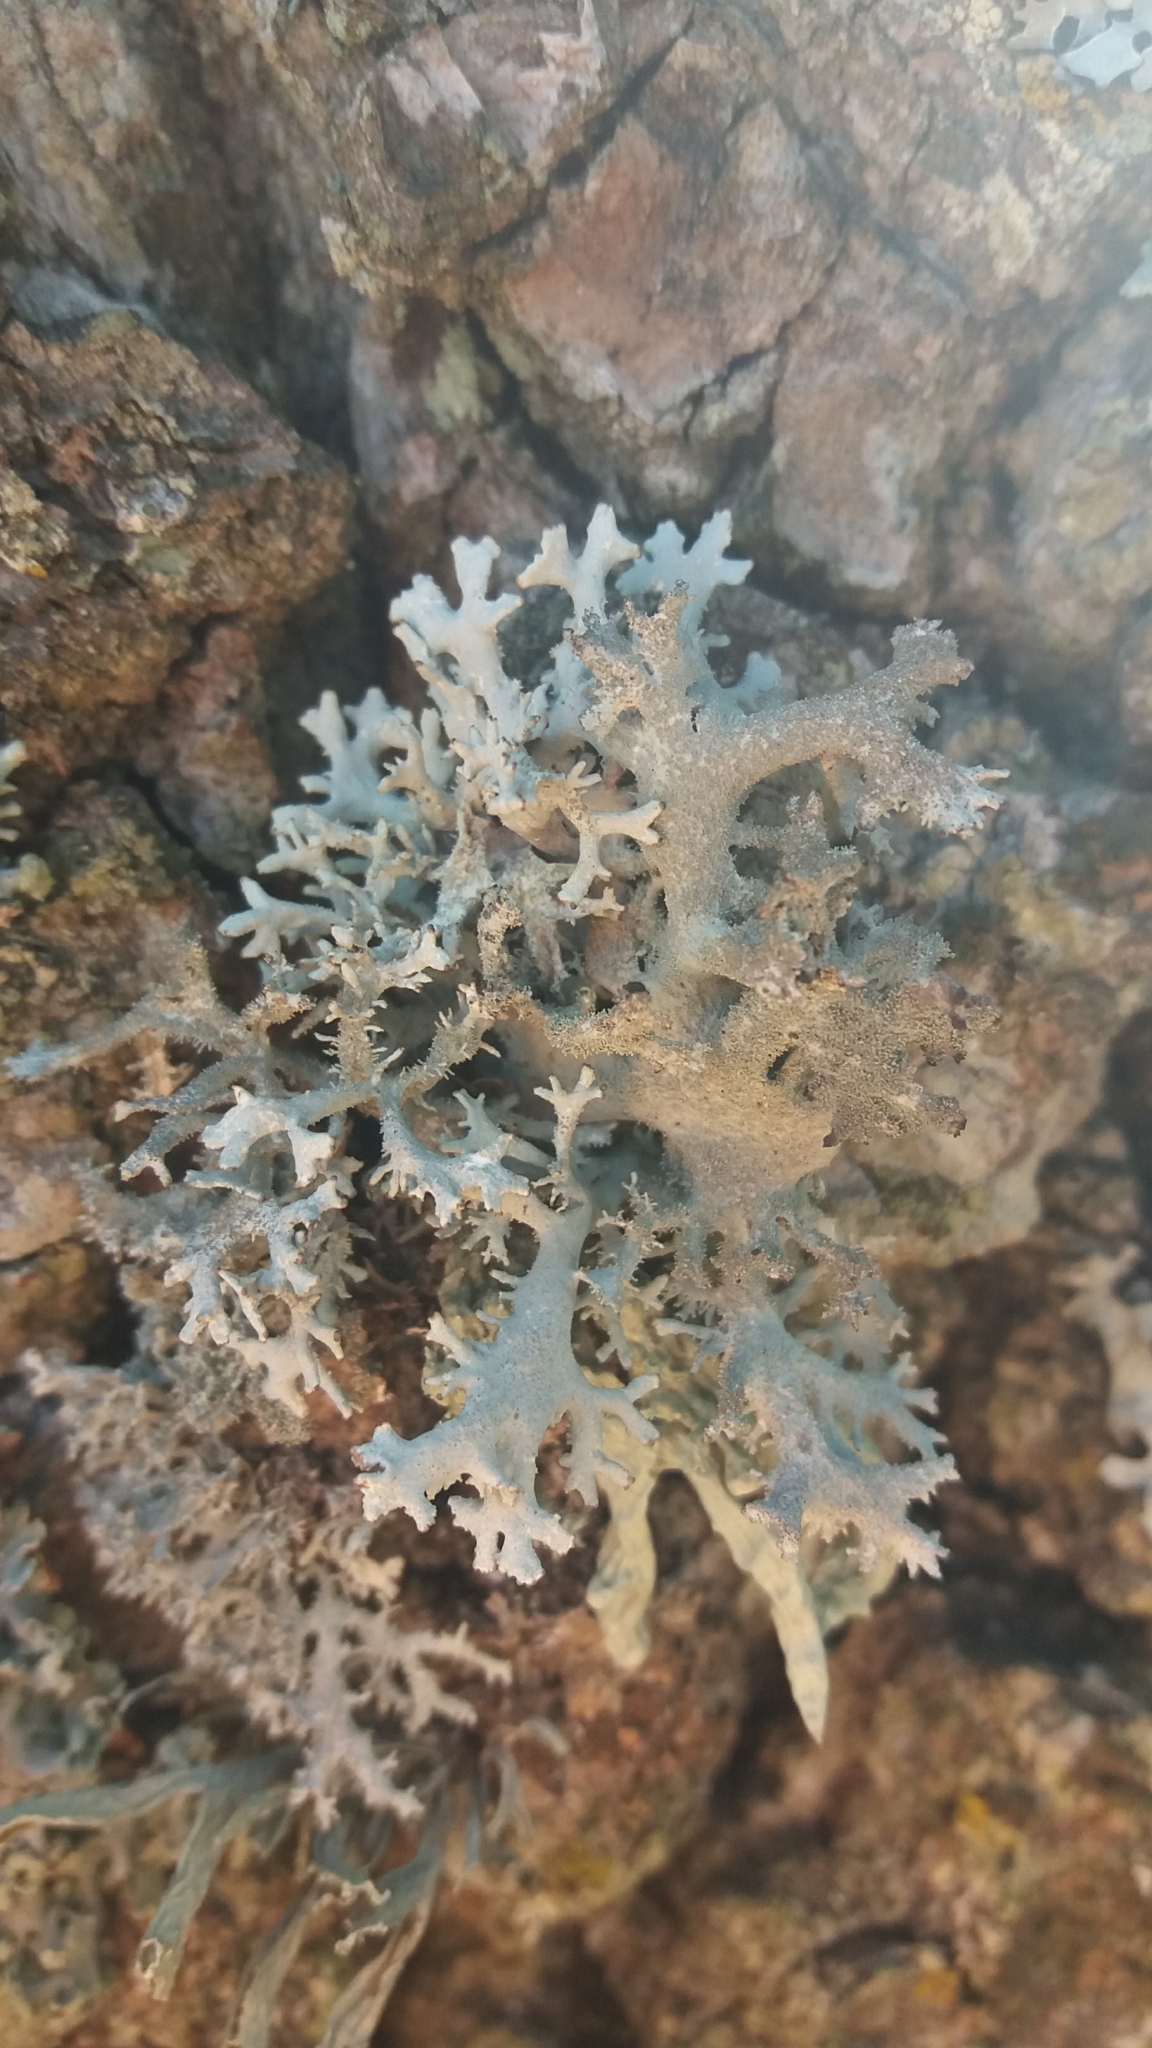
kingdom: Fungi
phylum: Ascomycota
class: Lecanoromycetes
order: Lecanorales
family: Parmeliaceae
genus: Pseudevernia
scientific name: Pseudevernia furfuracea
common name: Tree moss
